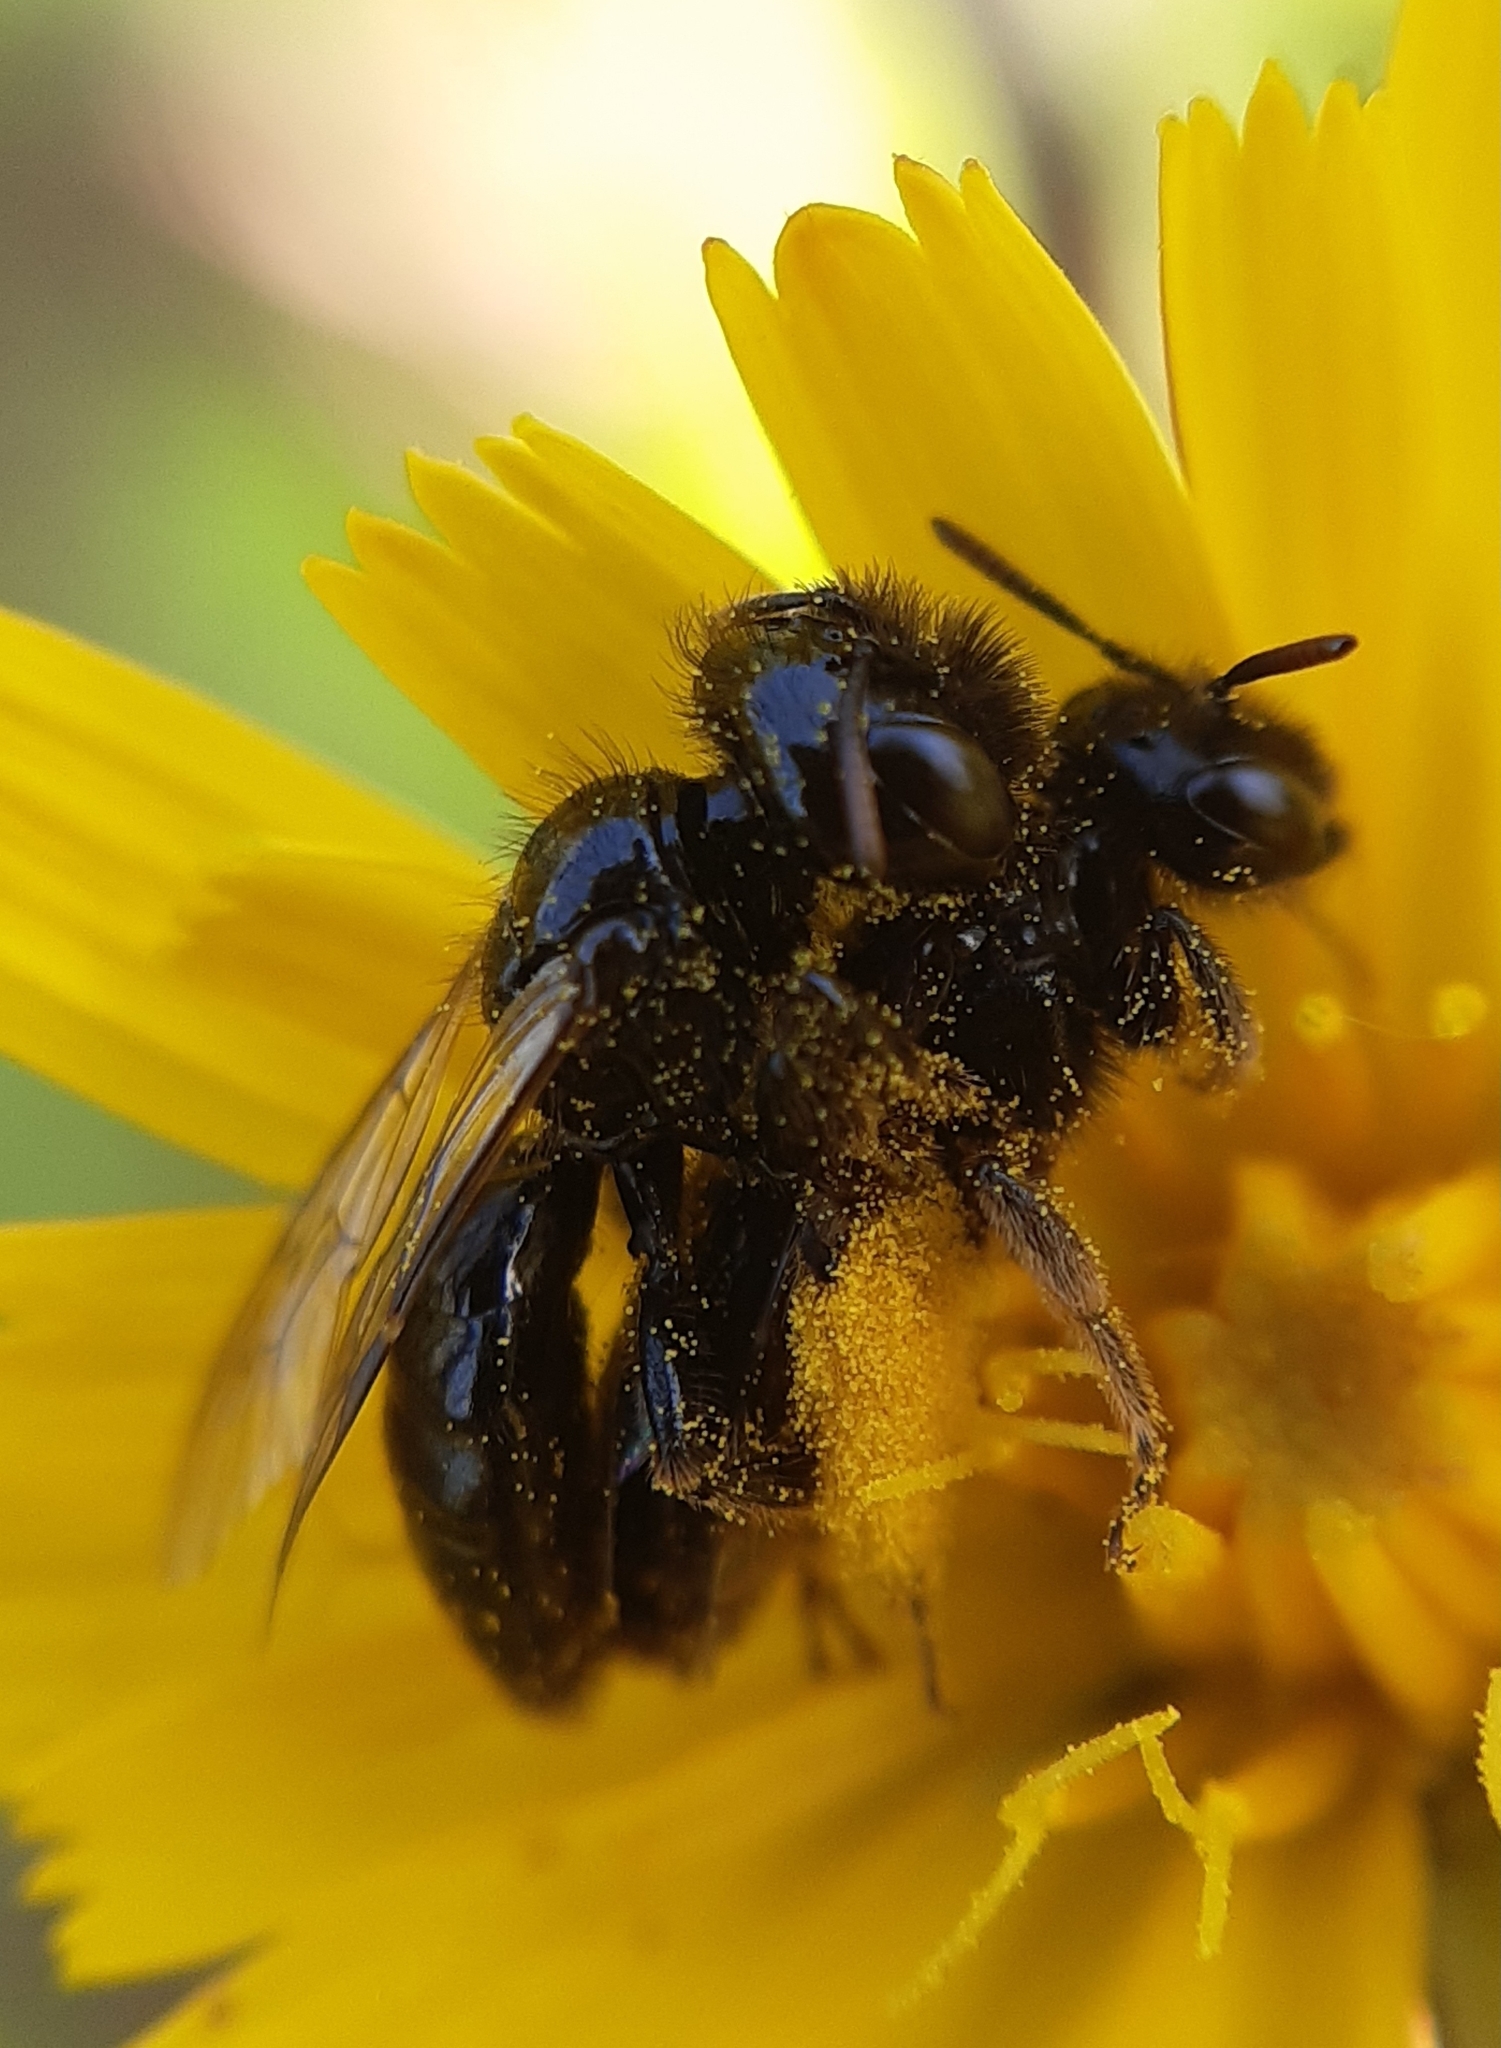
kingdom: Animalia
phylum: Arthropoda
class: Insecta
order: Hymenoptera
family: Andrenidae
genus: Panurgus
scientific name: Panurgus calcaratus
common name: Small shaggy bee
